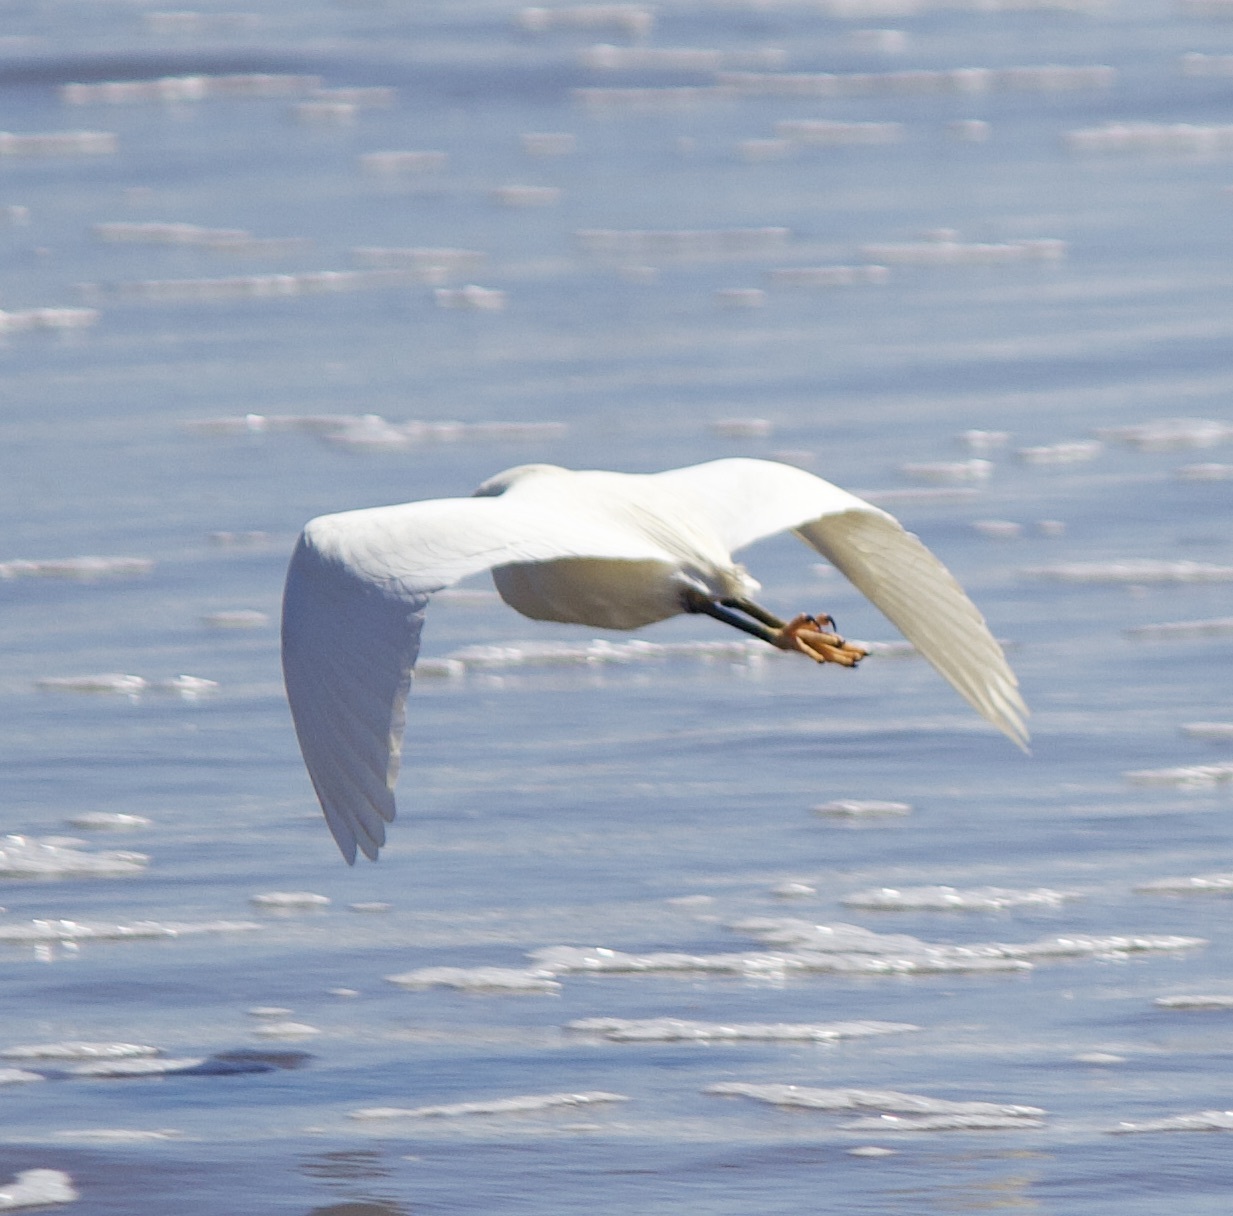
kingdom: Animalia
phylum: Chordata
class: Aves
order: Pelecaniformes
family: Ardeidae
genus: Egretta
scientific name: Egretta thula
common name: Snowy egret
